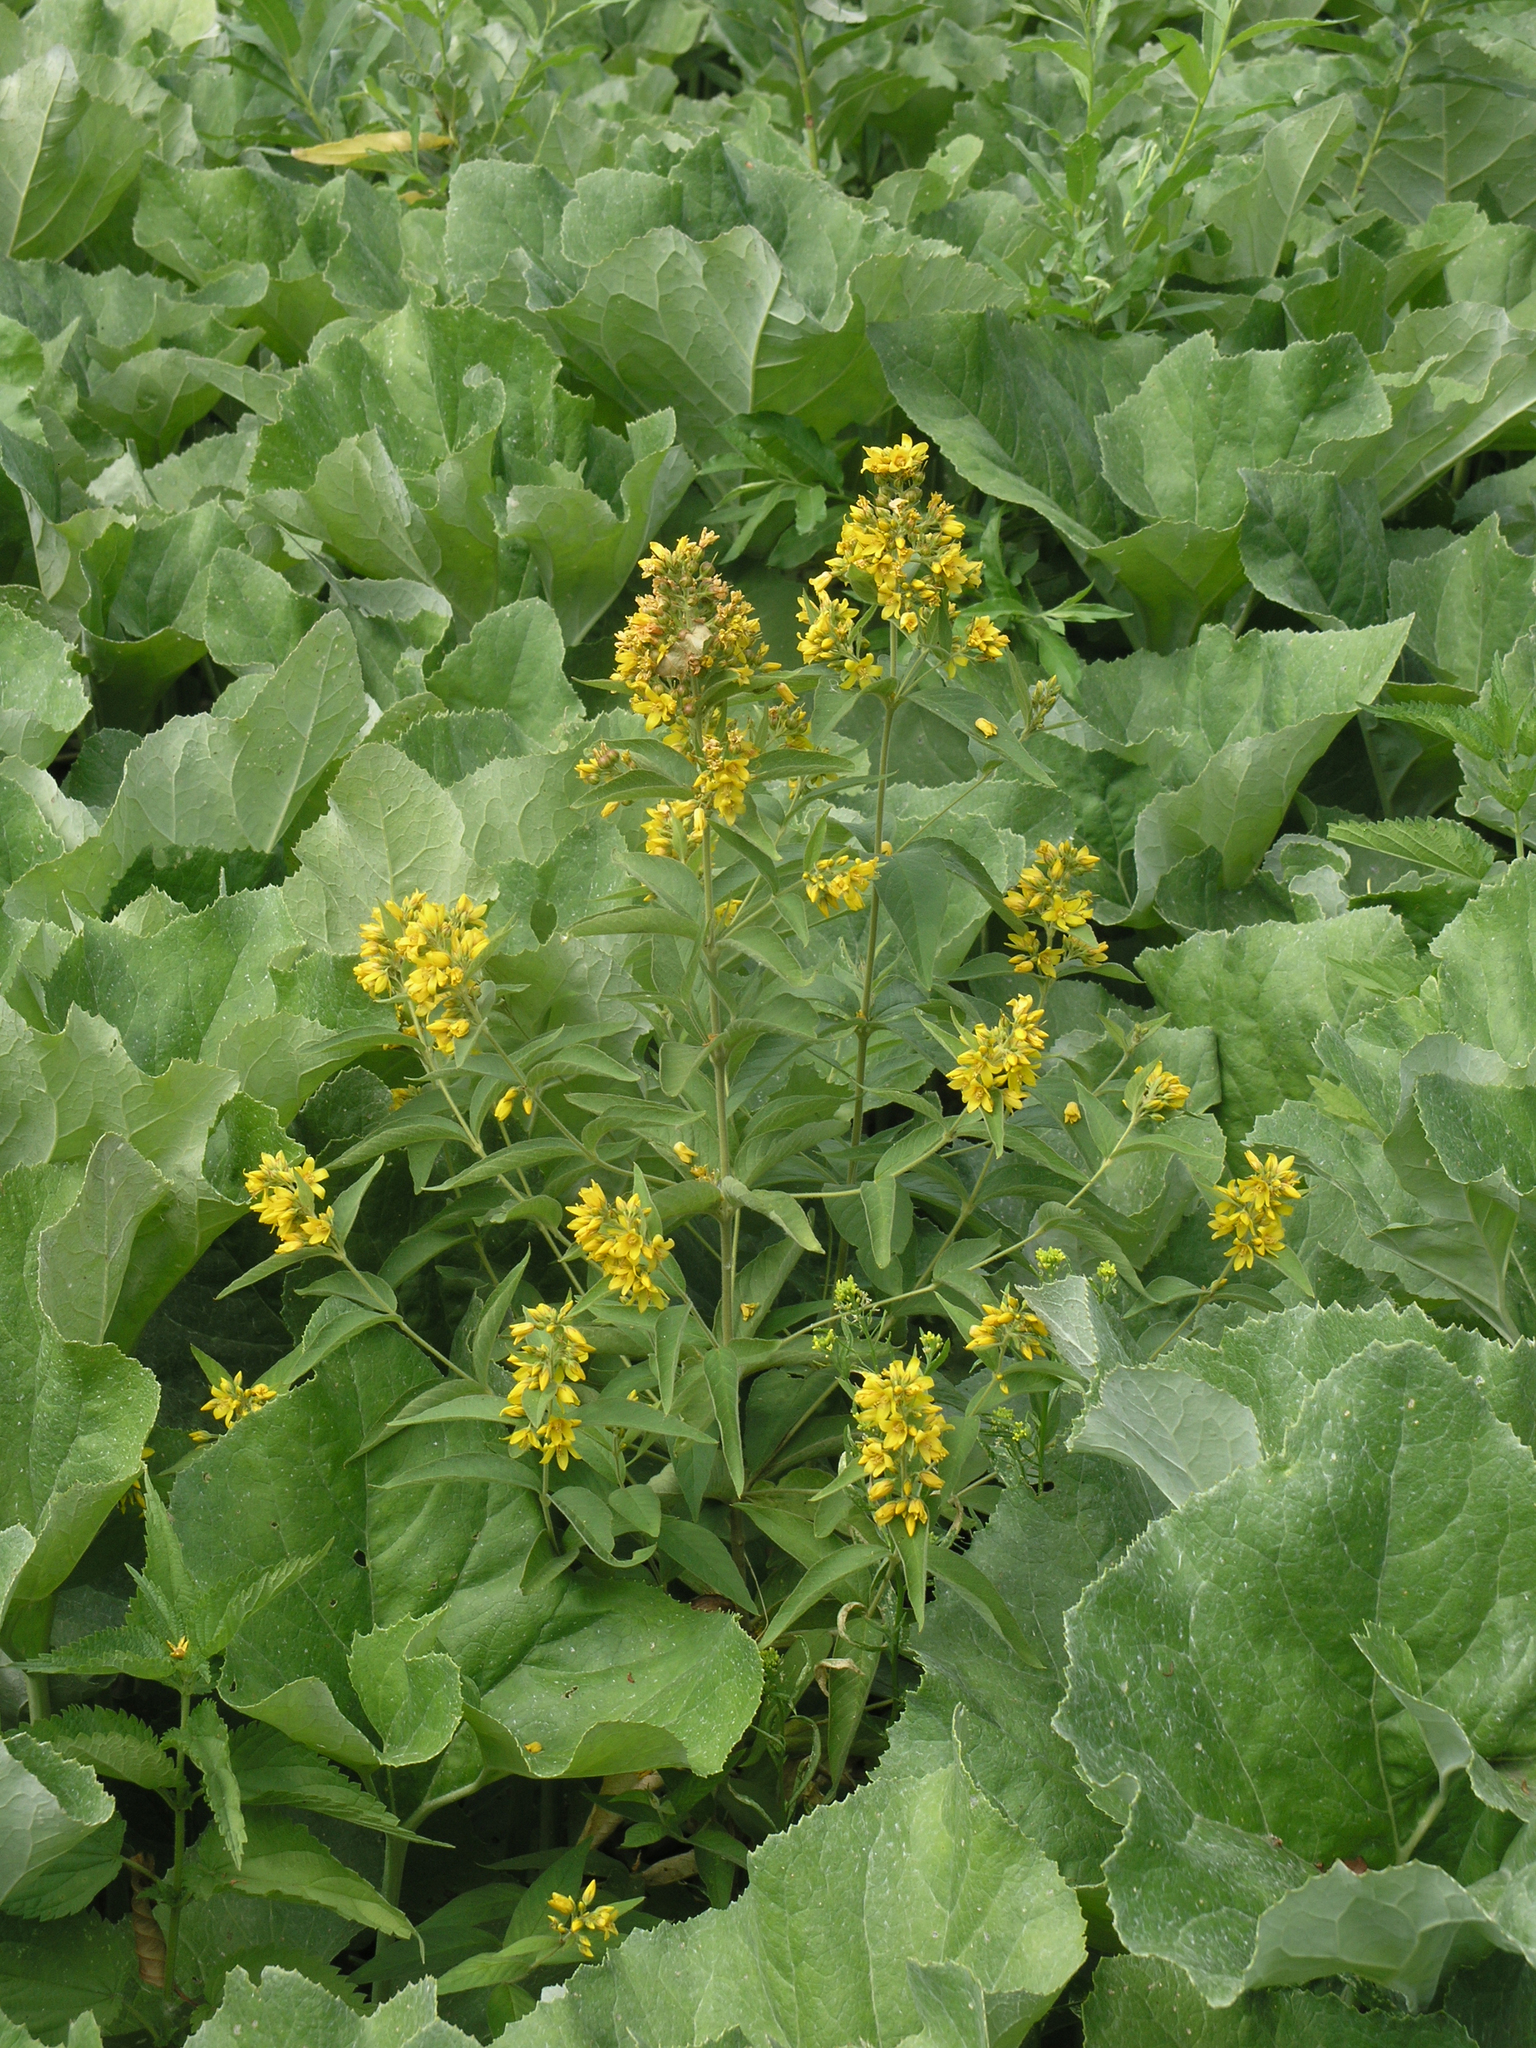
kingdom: Plantae
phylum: Tracheophyta
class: Magnoliopsida
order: Ericales
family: Primulaceae
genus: Lysimachia
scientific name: Lysimachia vulgaris
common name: Yellow loosestrife
